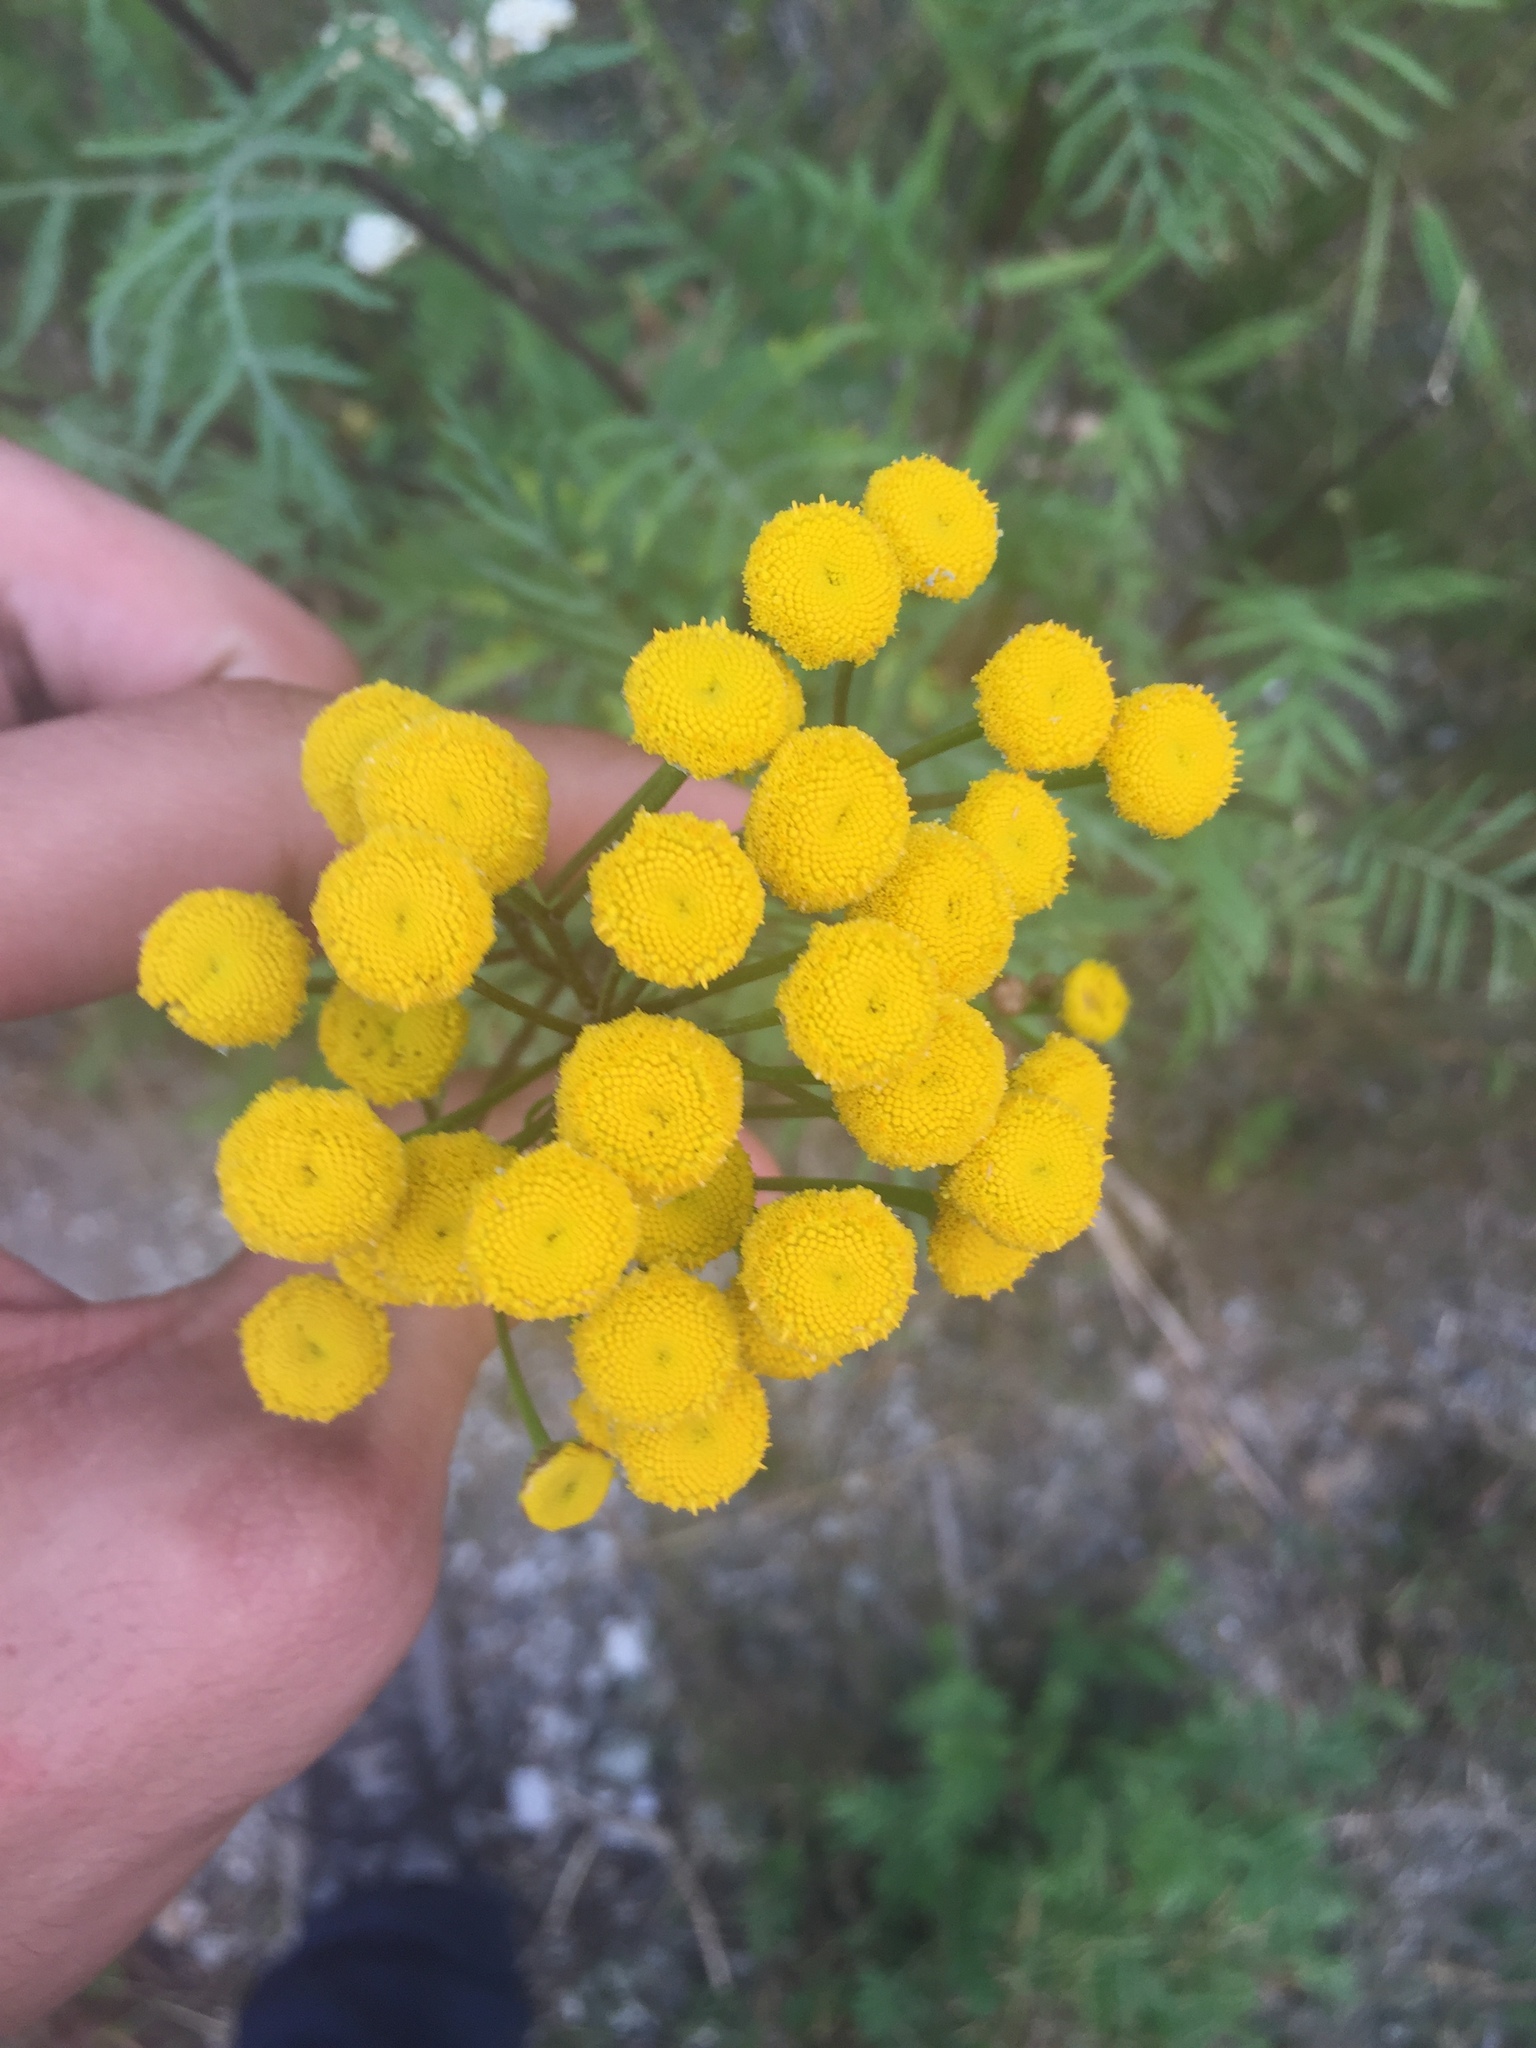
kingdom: Plantae
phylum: Tracheophyta
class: Magnoliopsida
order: Asterales
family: Asteraceae
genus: Tanacetum
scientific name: Tanacetum vulgare
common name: Common tansy
